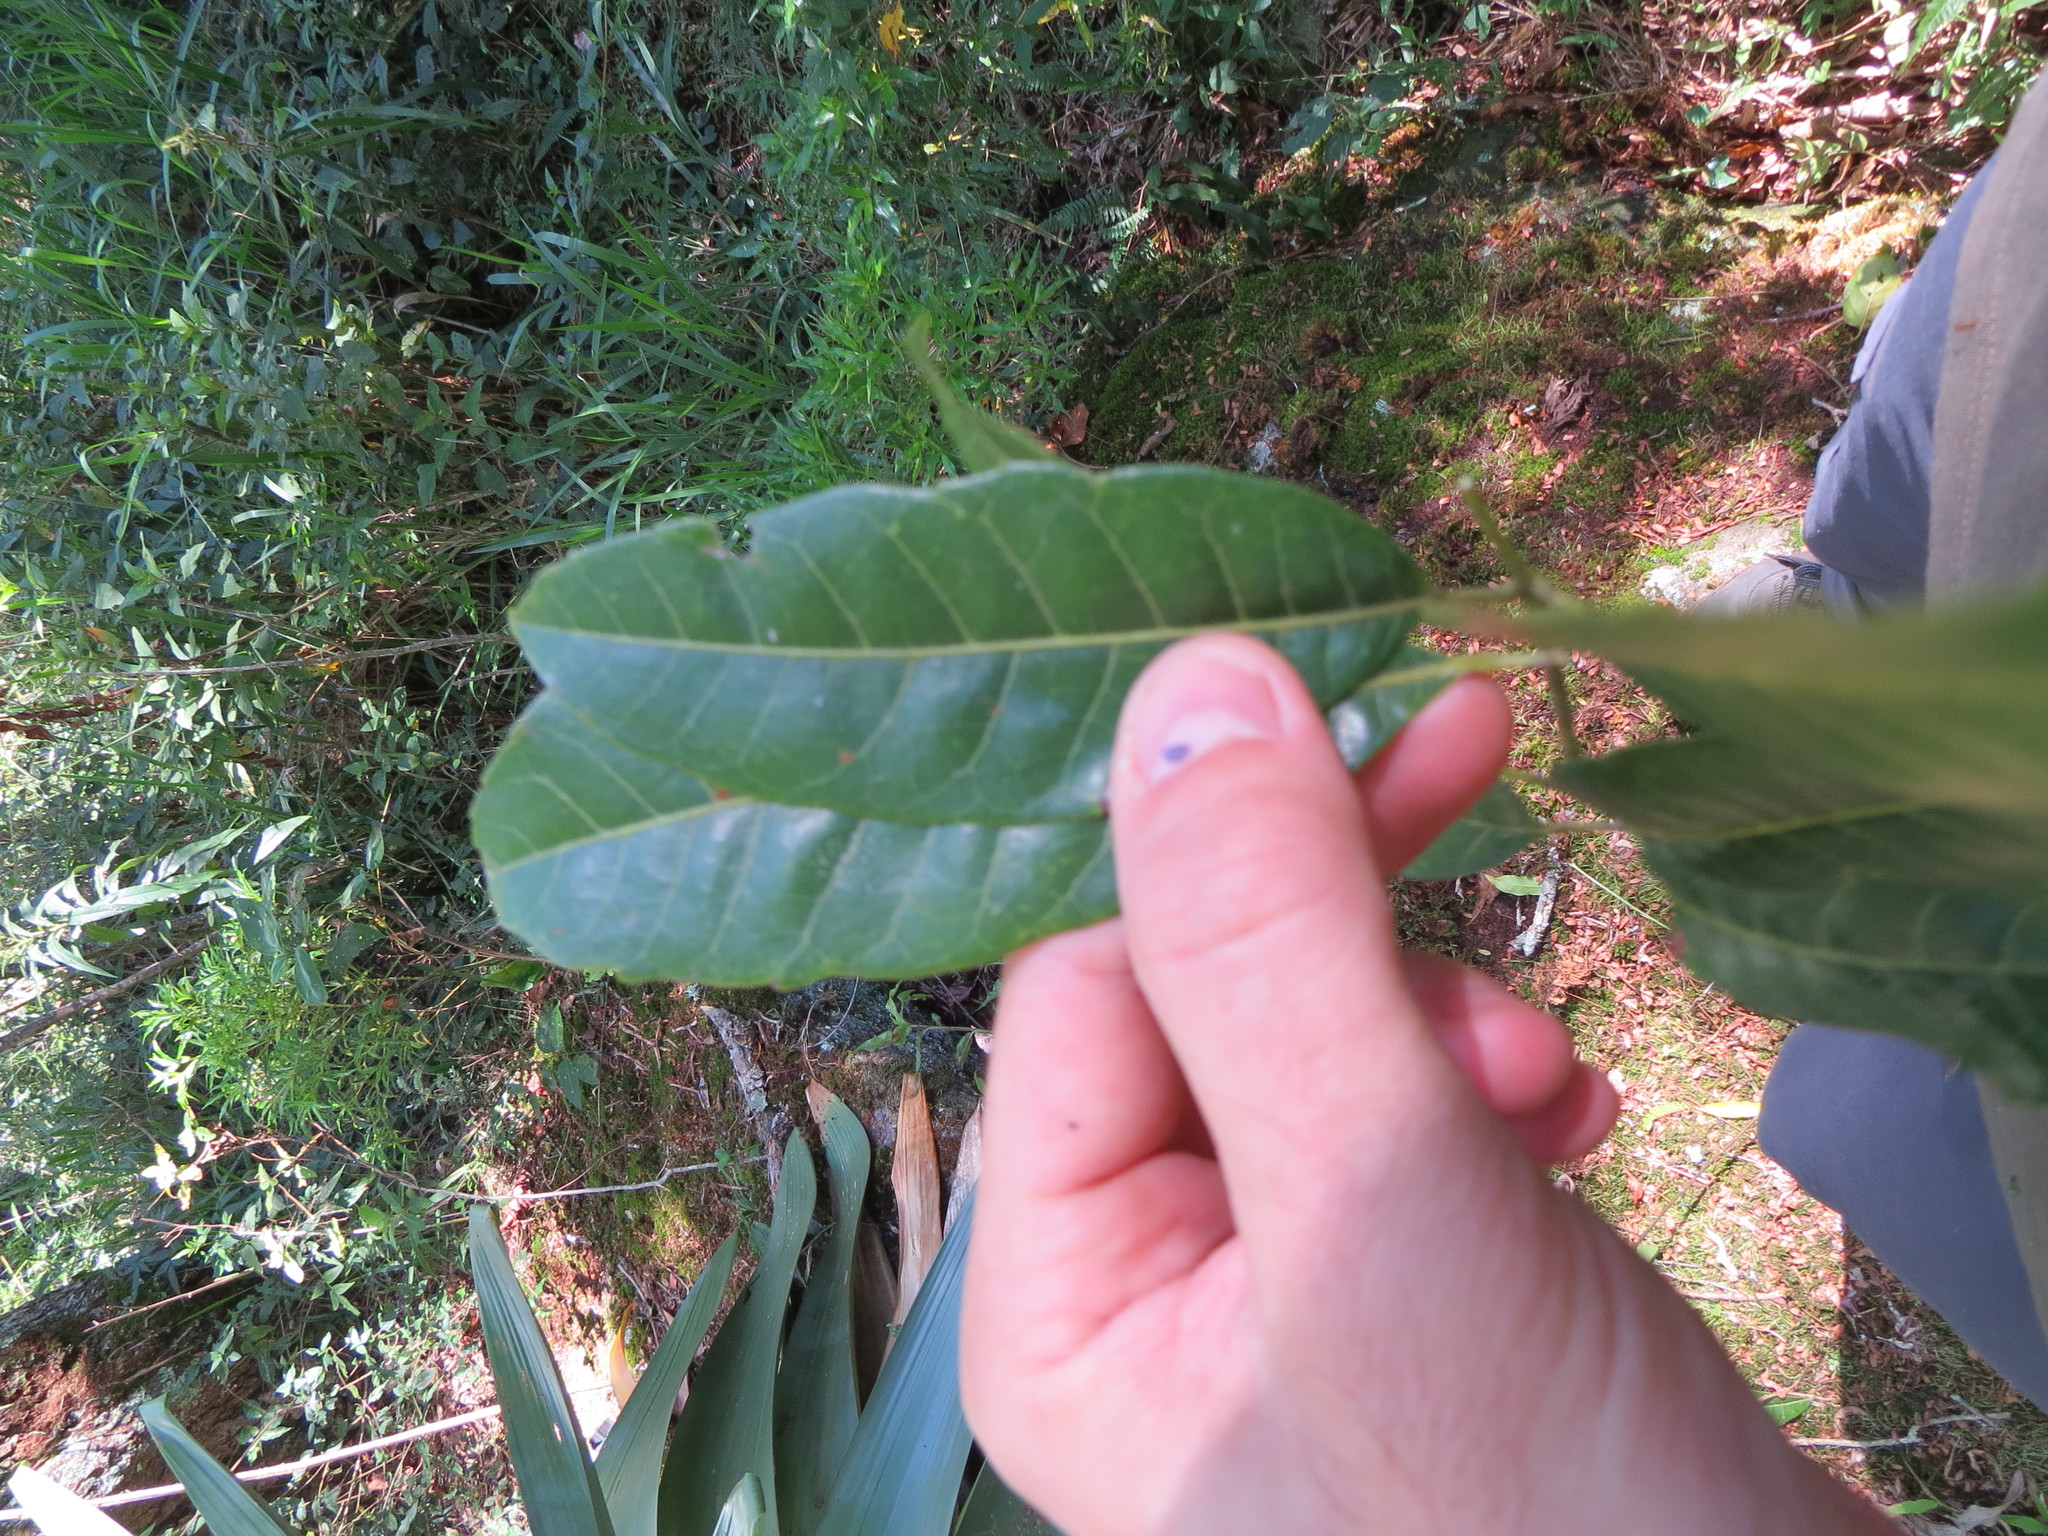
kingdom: Plantae
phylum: Tracheophyta
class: Magnoliopsida
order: Sapindales
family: Anacardiaceae
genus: Schinus
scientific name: Schinus terebinthifolia
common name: Brazilian peppertree
